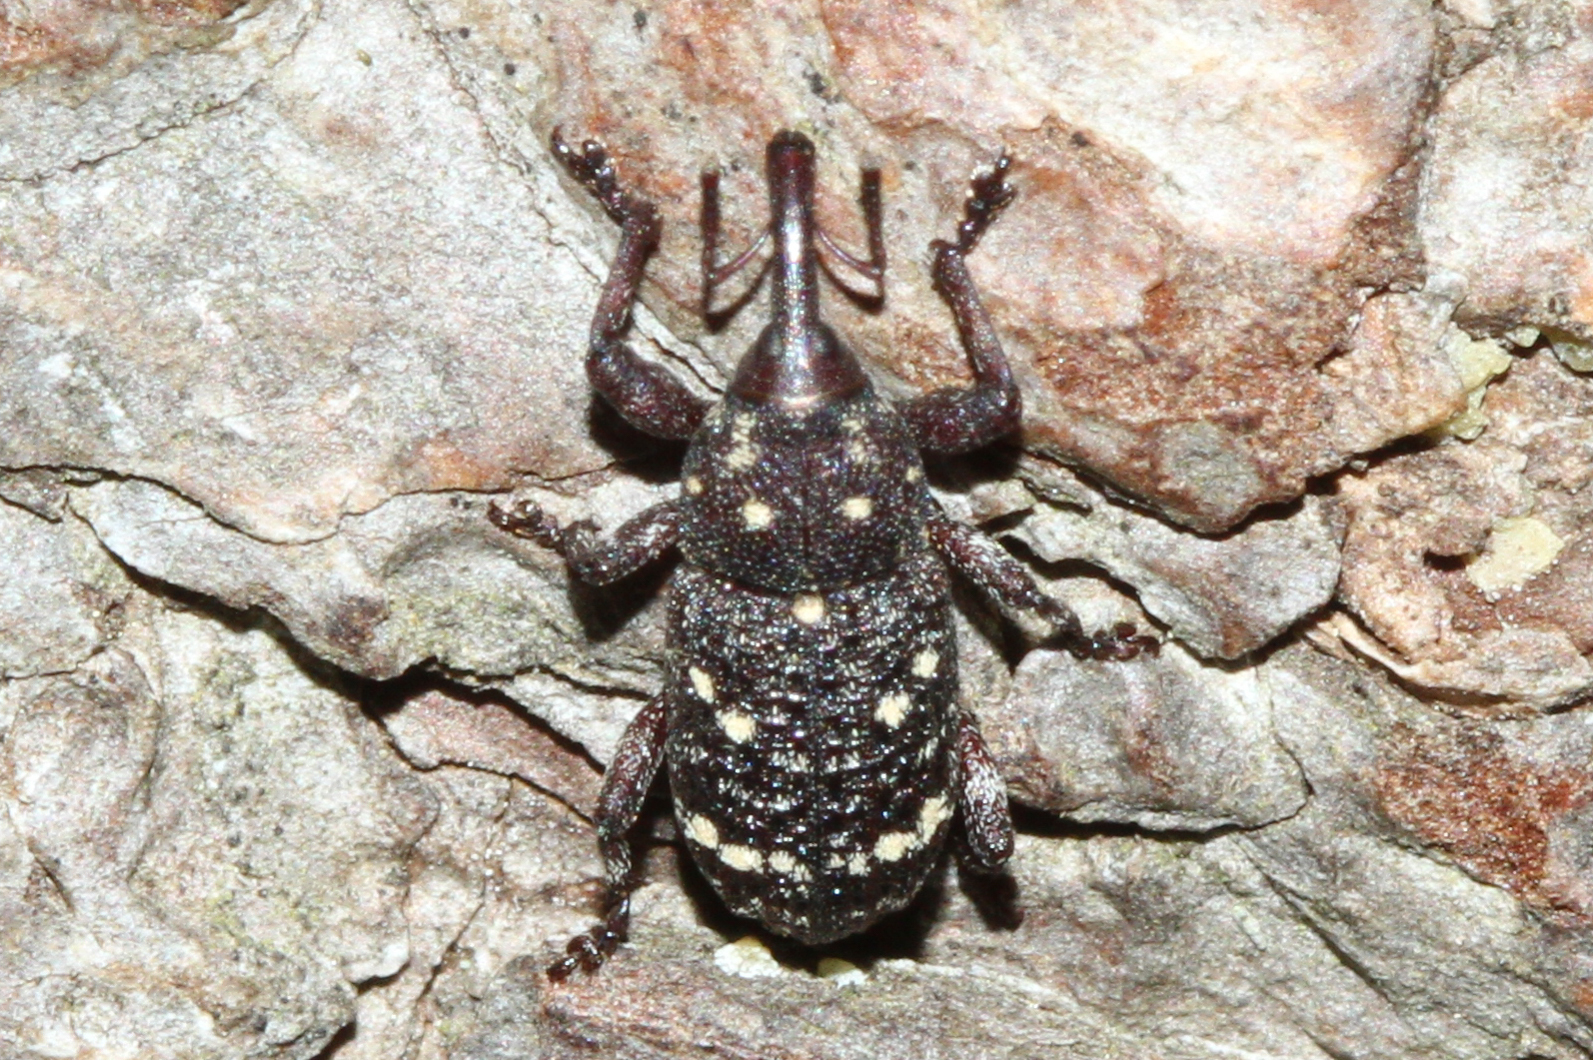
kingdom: Animalia
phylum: Arthropoda
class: Insecta
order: Coleoptera
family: Curculionidae
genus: Pissodes
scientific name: Pissodes pini
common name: Banded pine weevil
